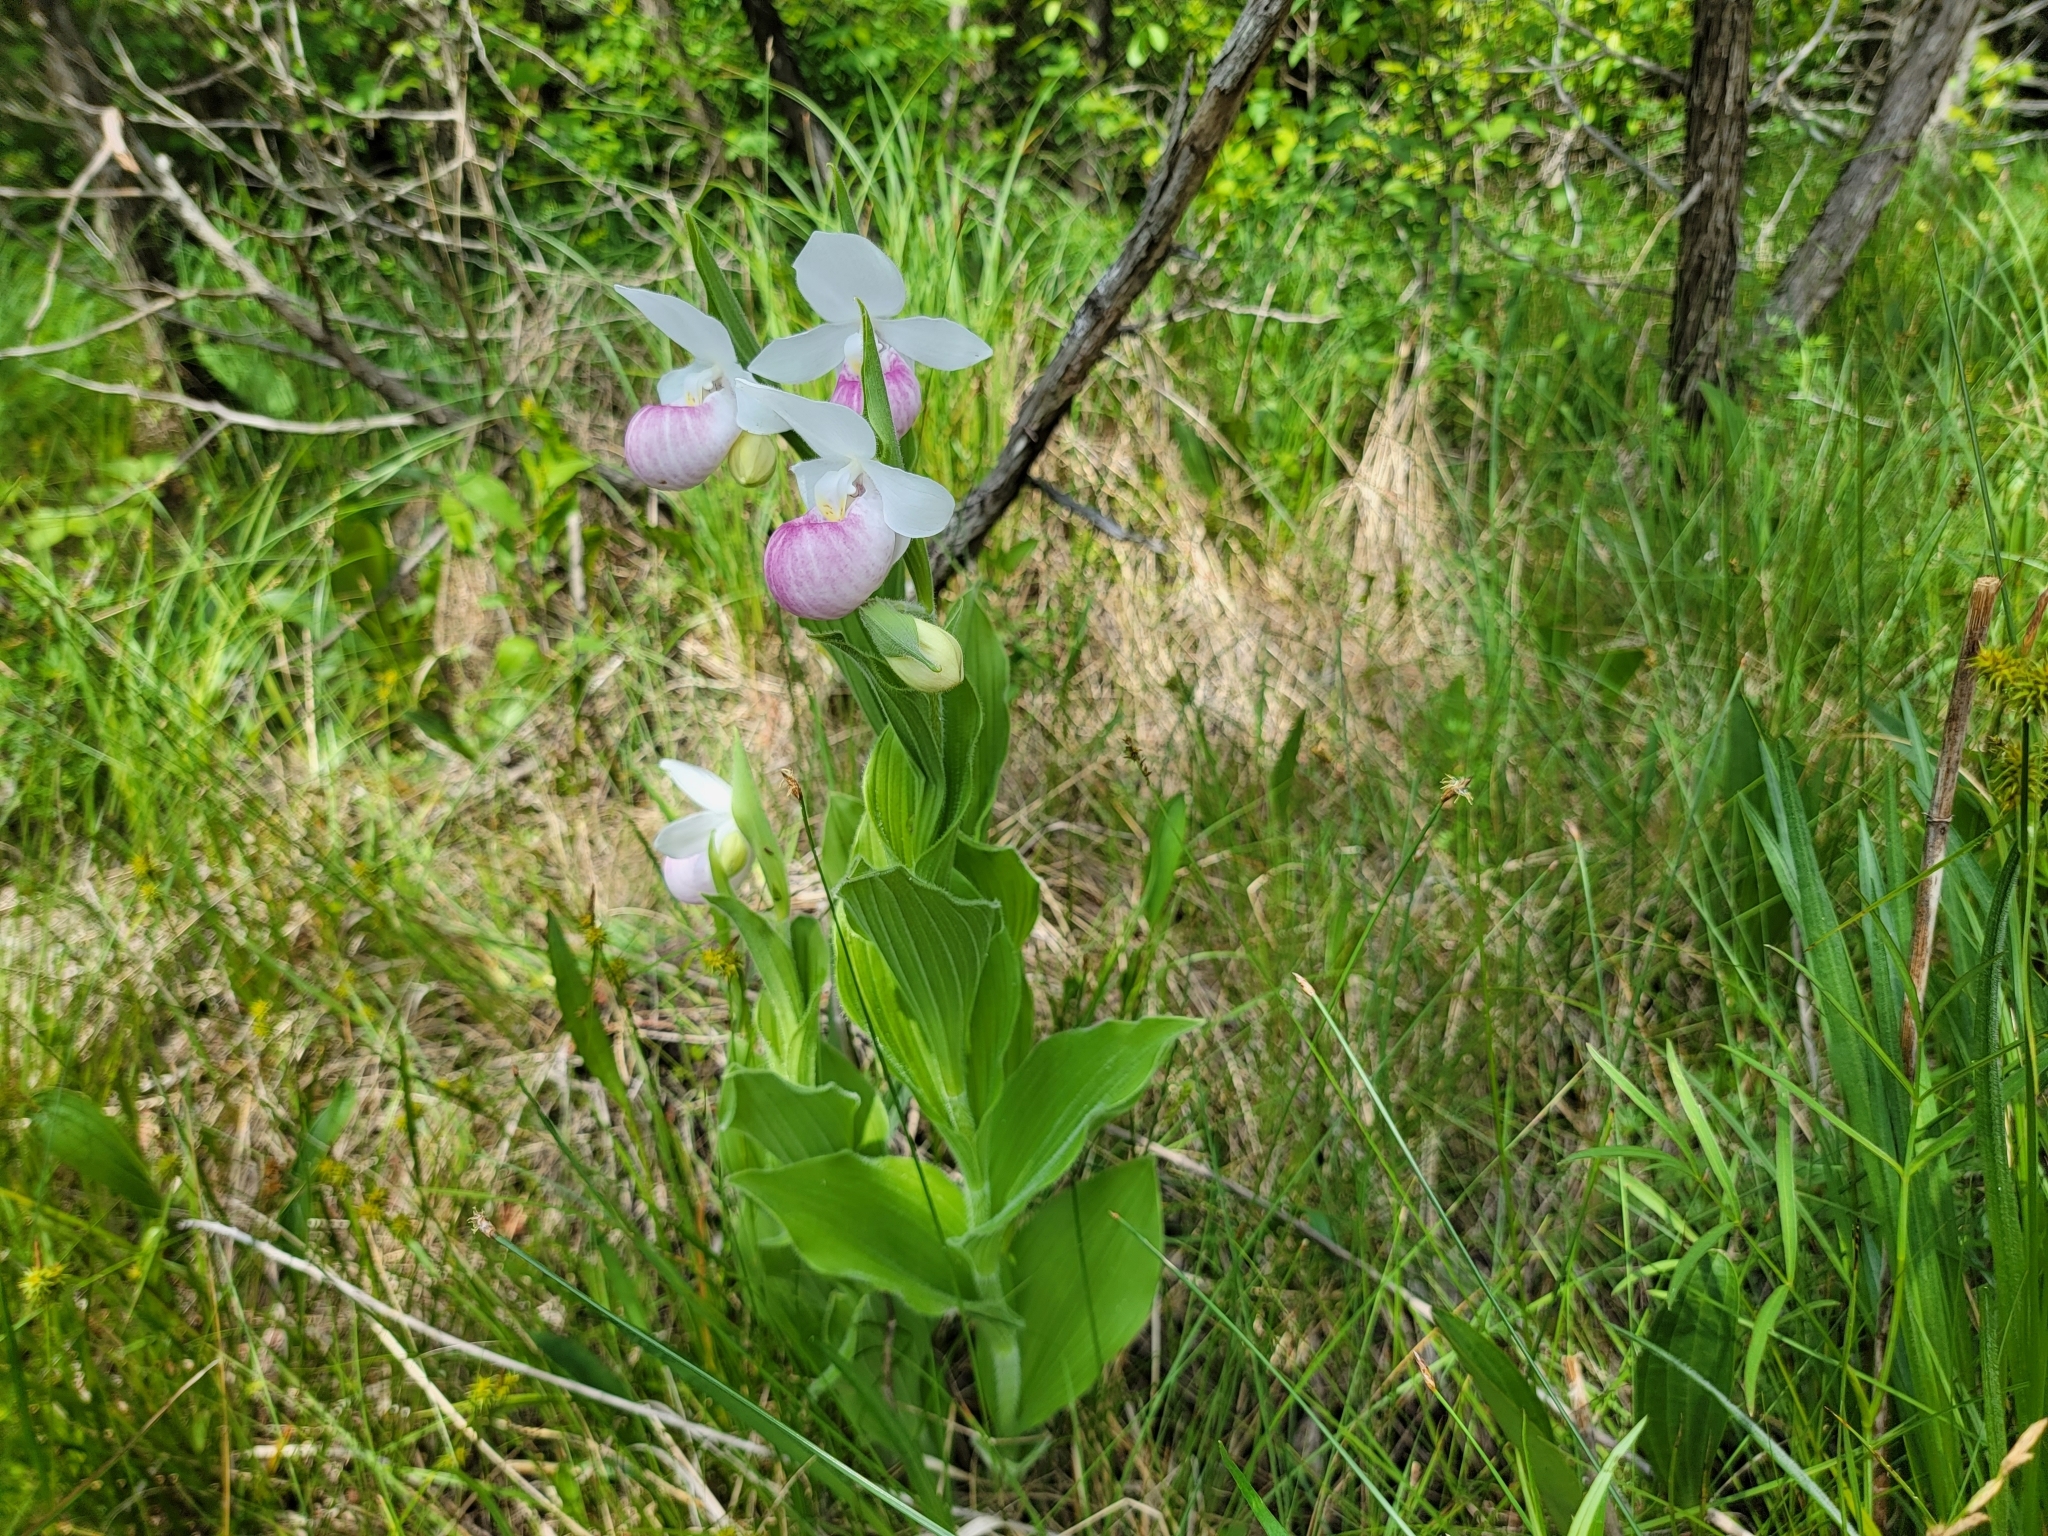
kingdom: Plantae
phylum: Tracheophyta
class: Liliopsida
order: Asparagales
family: Orchidaceae
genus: Cypripedium
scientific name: Cypripedium reginae
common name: Queen lady's-slipper
